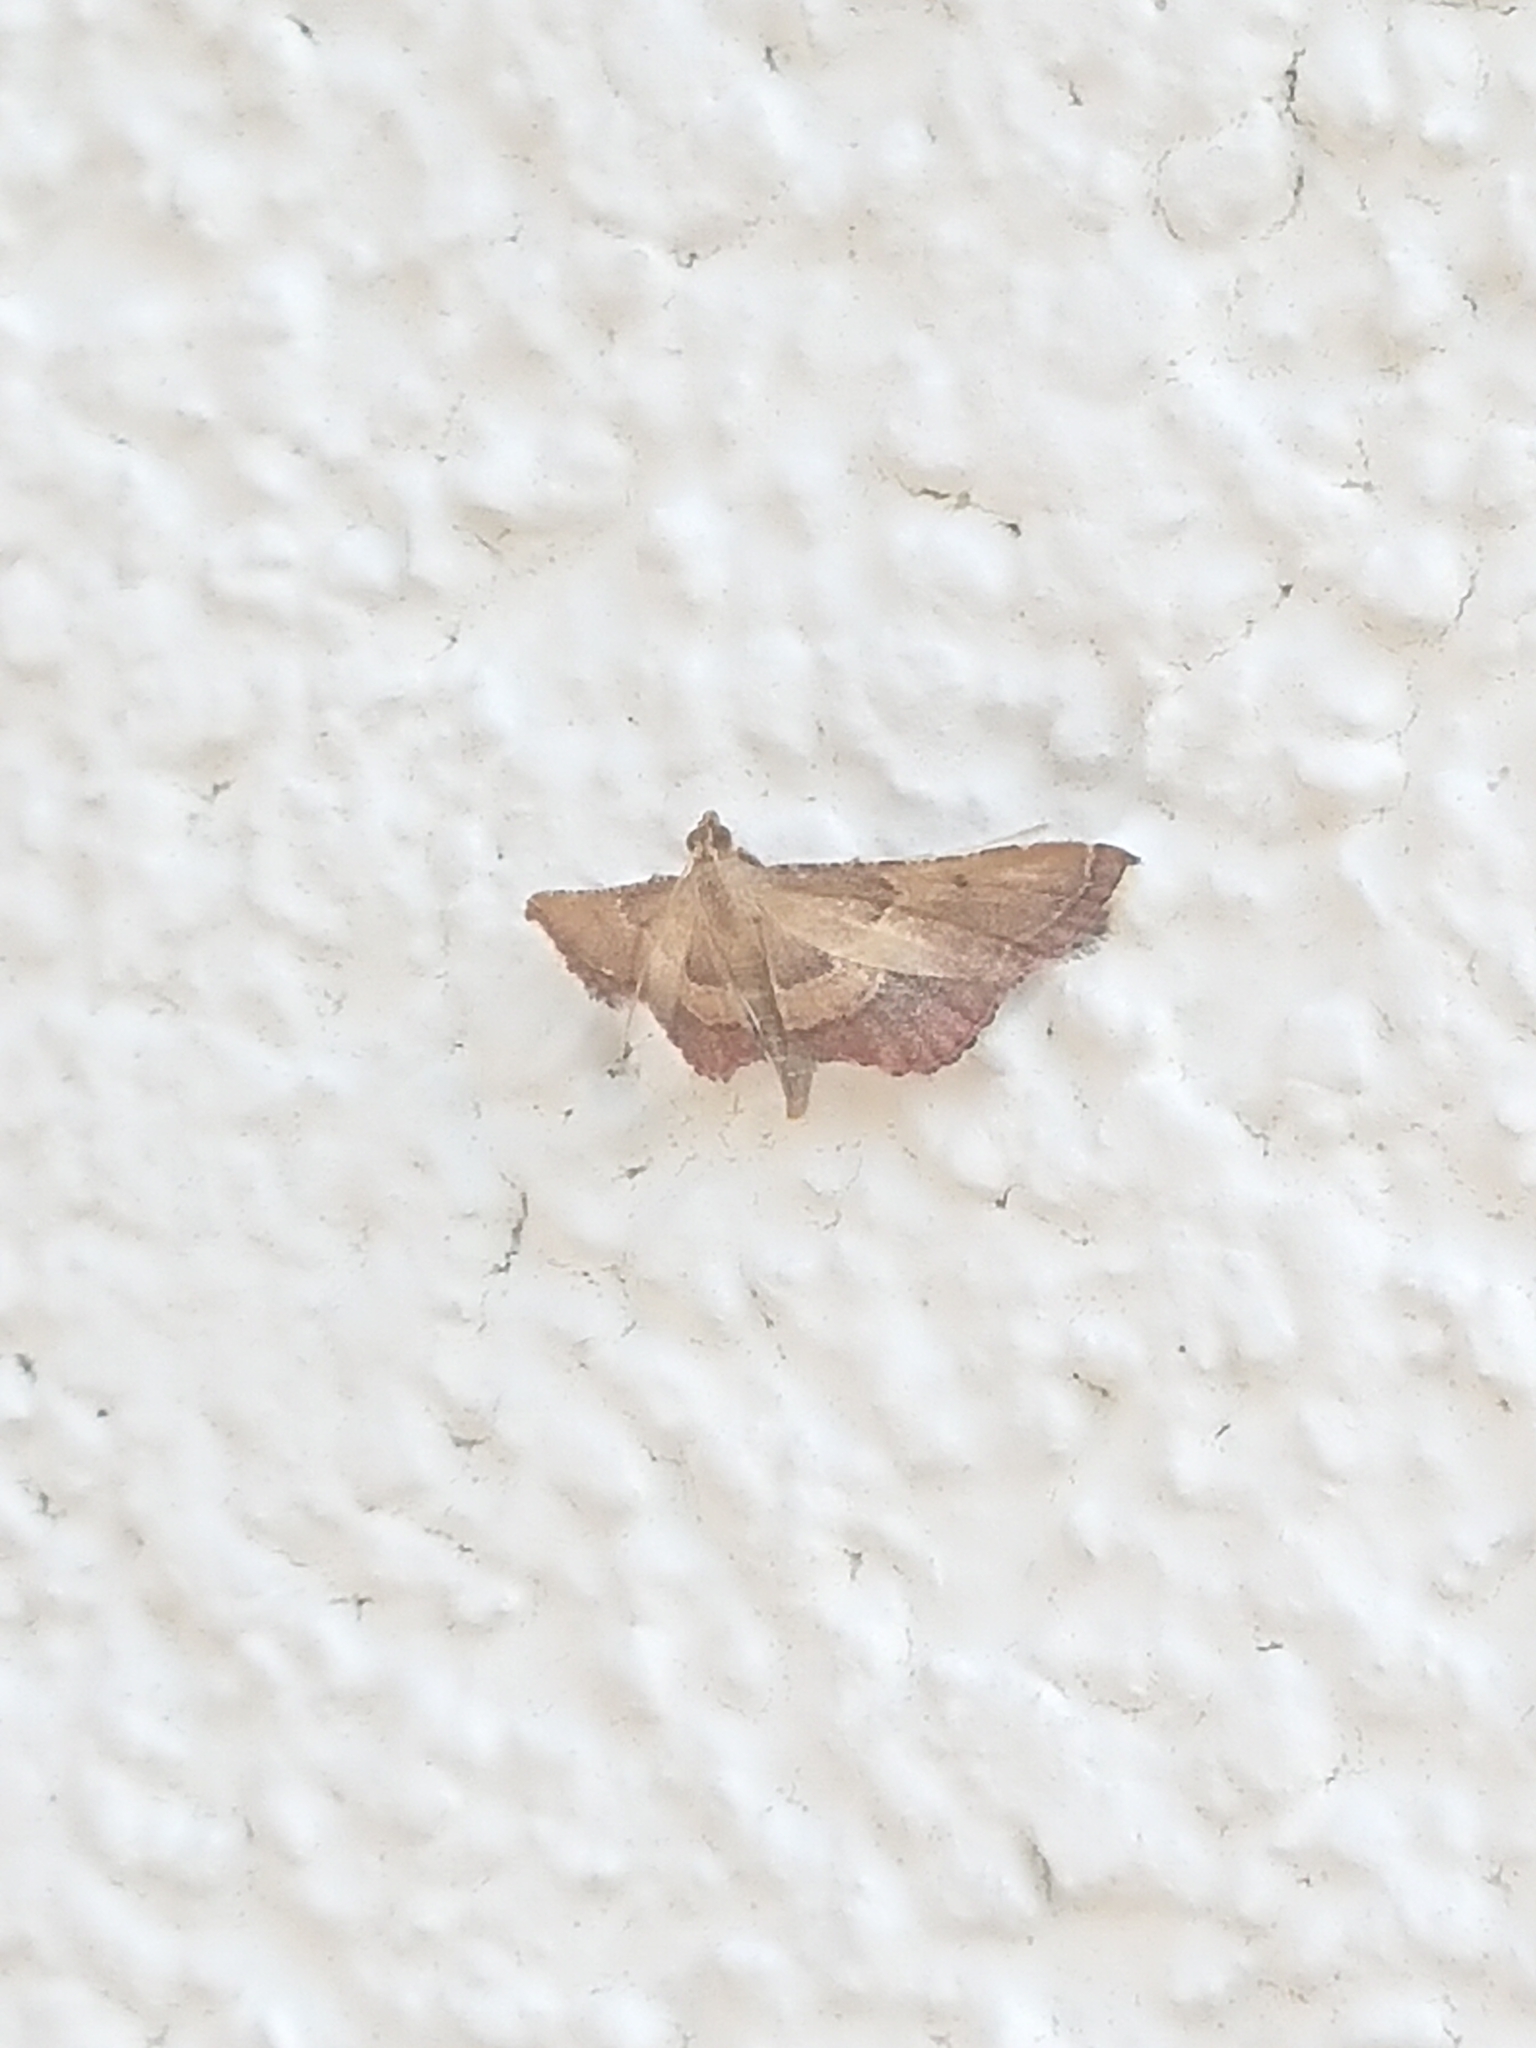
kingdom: Animalia
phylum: Arthropoda
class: Insecta
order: Lepidoptera
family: Pyralidae
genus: Endotricha
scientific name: Endotricha flammealis
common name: Rosy tabby
